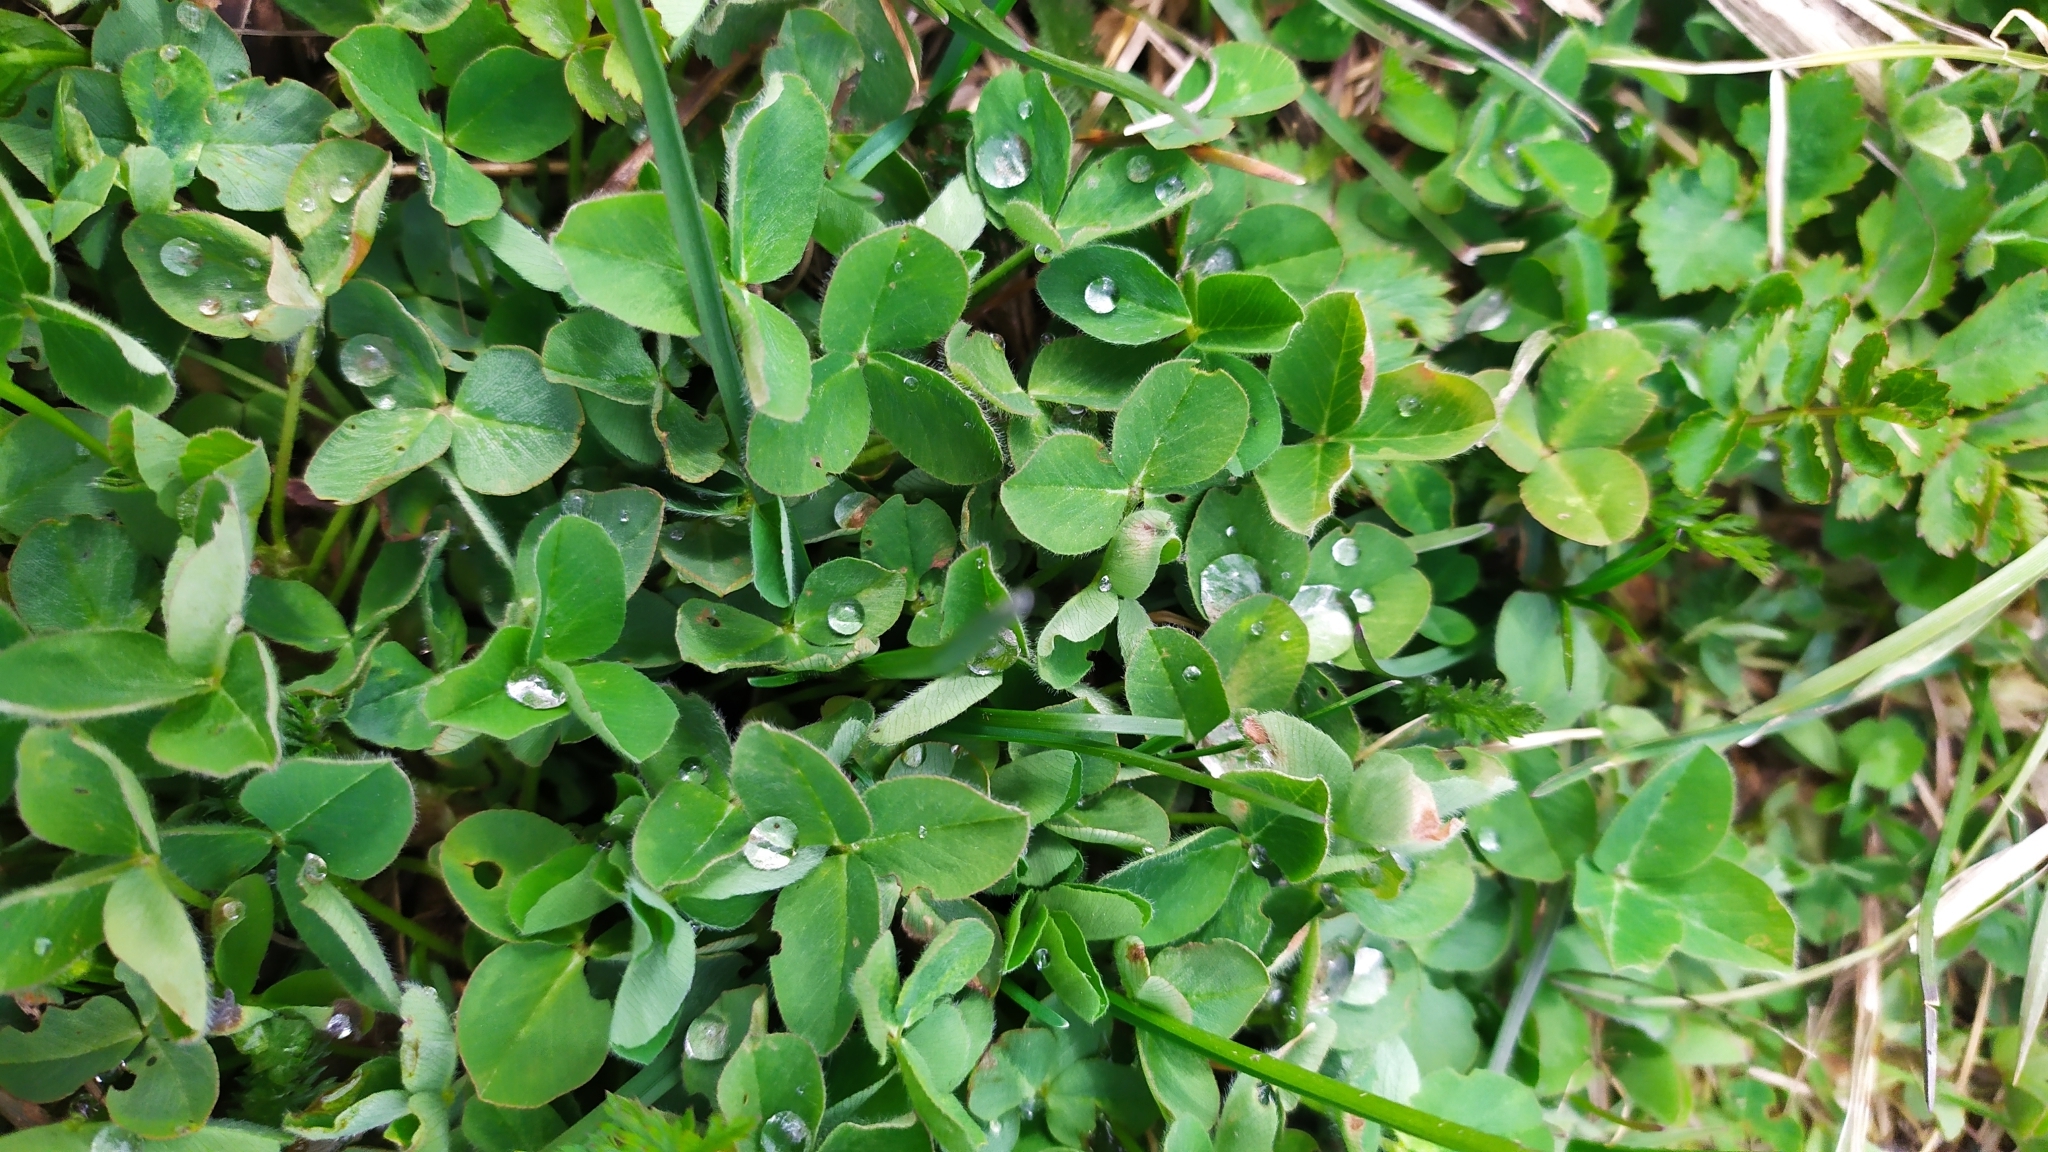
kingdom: Plantae
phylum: Tracheophyta
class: Magnoliopsida
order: Fabales
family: Fabaceae
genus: Trifolium
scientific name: Trifolium repens
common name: White clover
